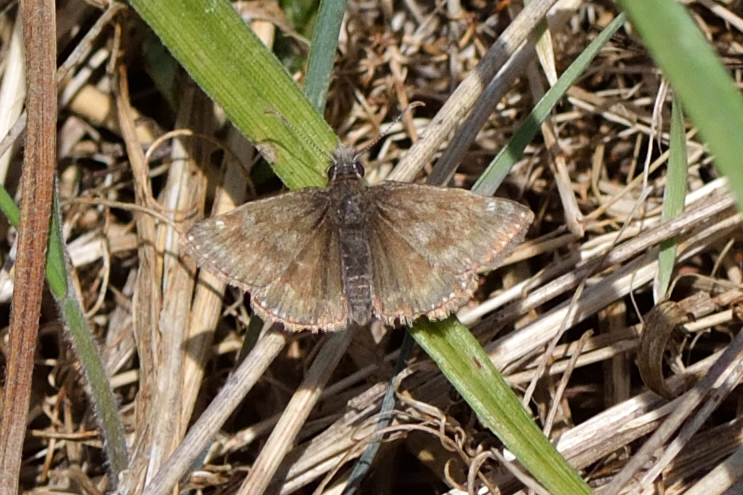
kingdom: Animalia
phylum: Arthropoda
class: Insecta
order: Lepidoptera
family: Hesperiidae
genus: Erynnis
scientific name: Erynnis tages
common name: Dingy skipper
